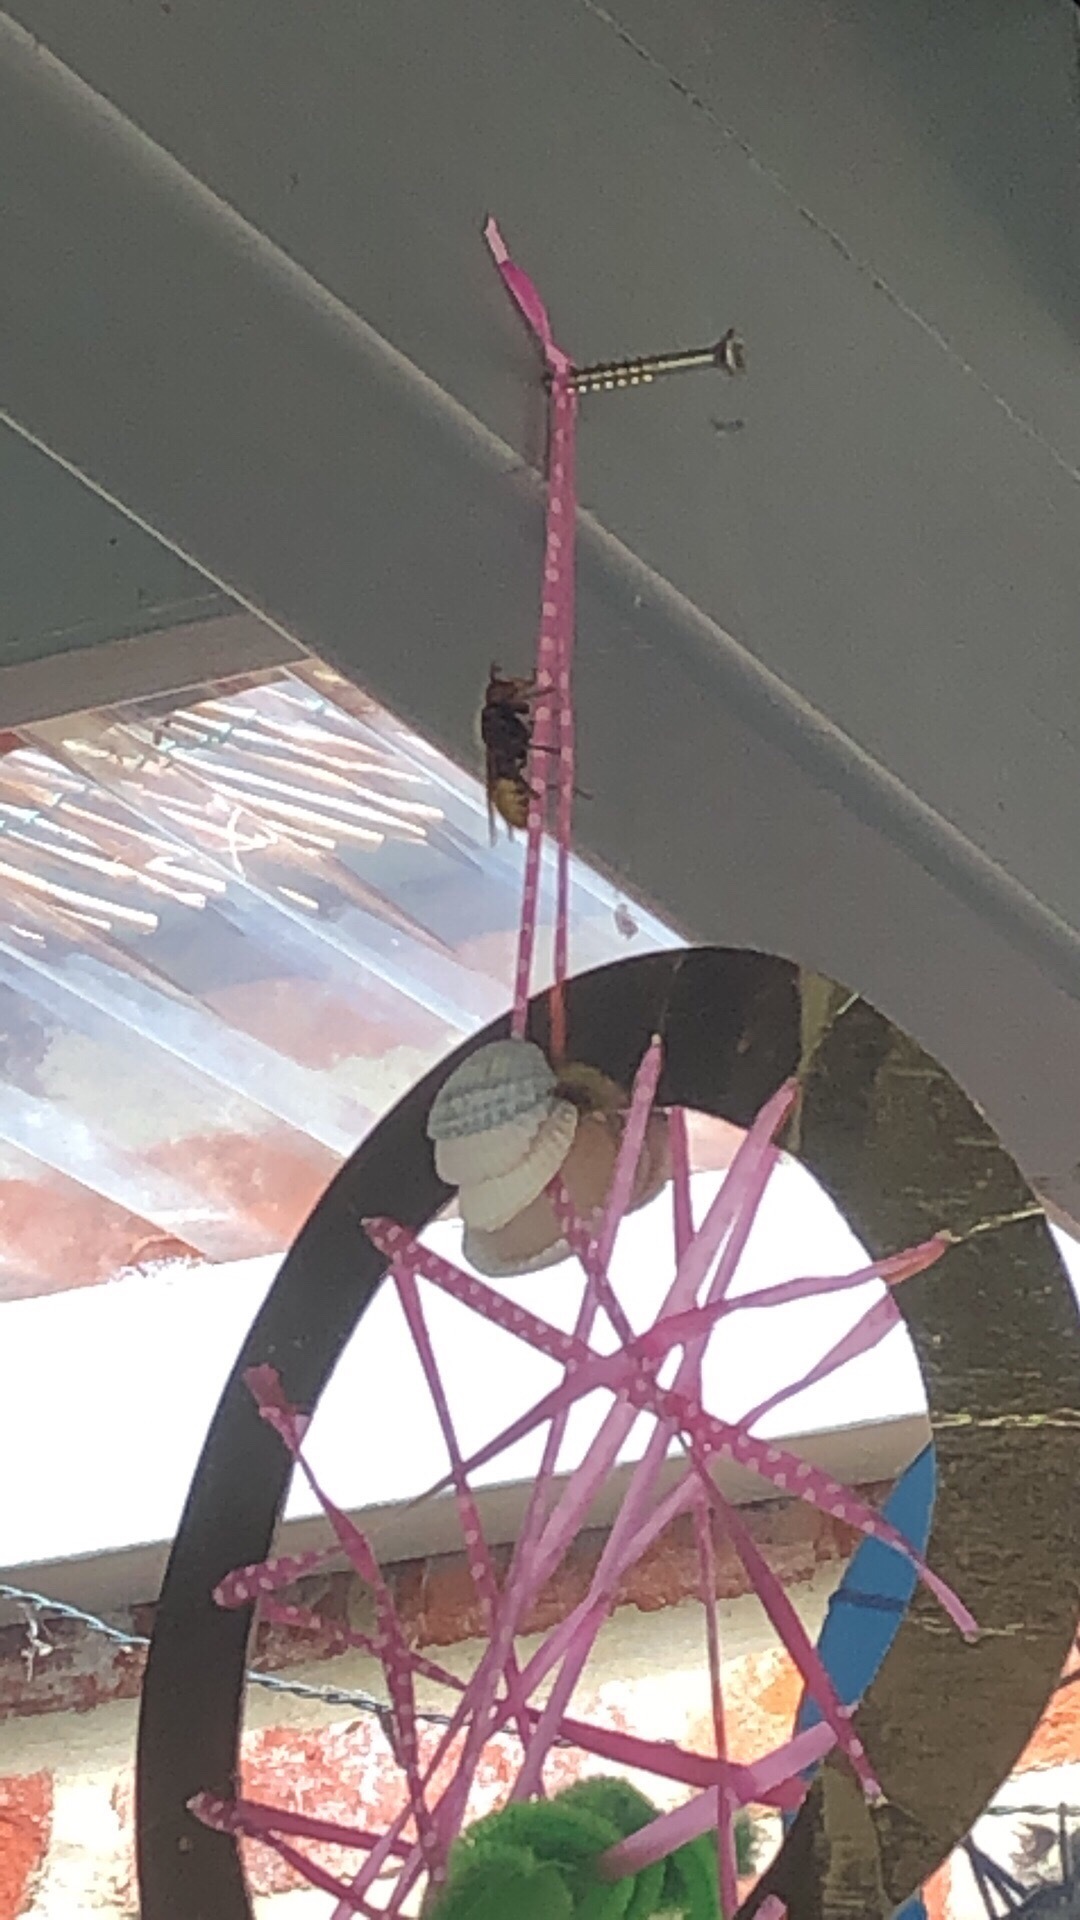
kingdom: Animalia
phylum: Arthropoda
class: Insecta
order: Hymenoptera
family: Vespidae
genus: Vespa
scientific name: Vespa crabro
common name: Hornet
